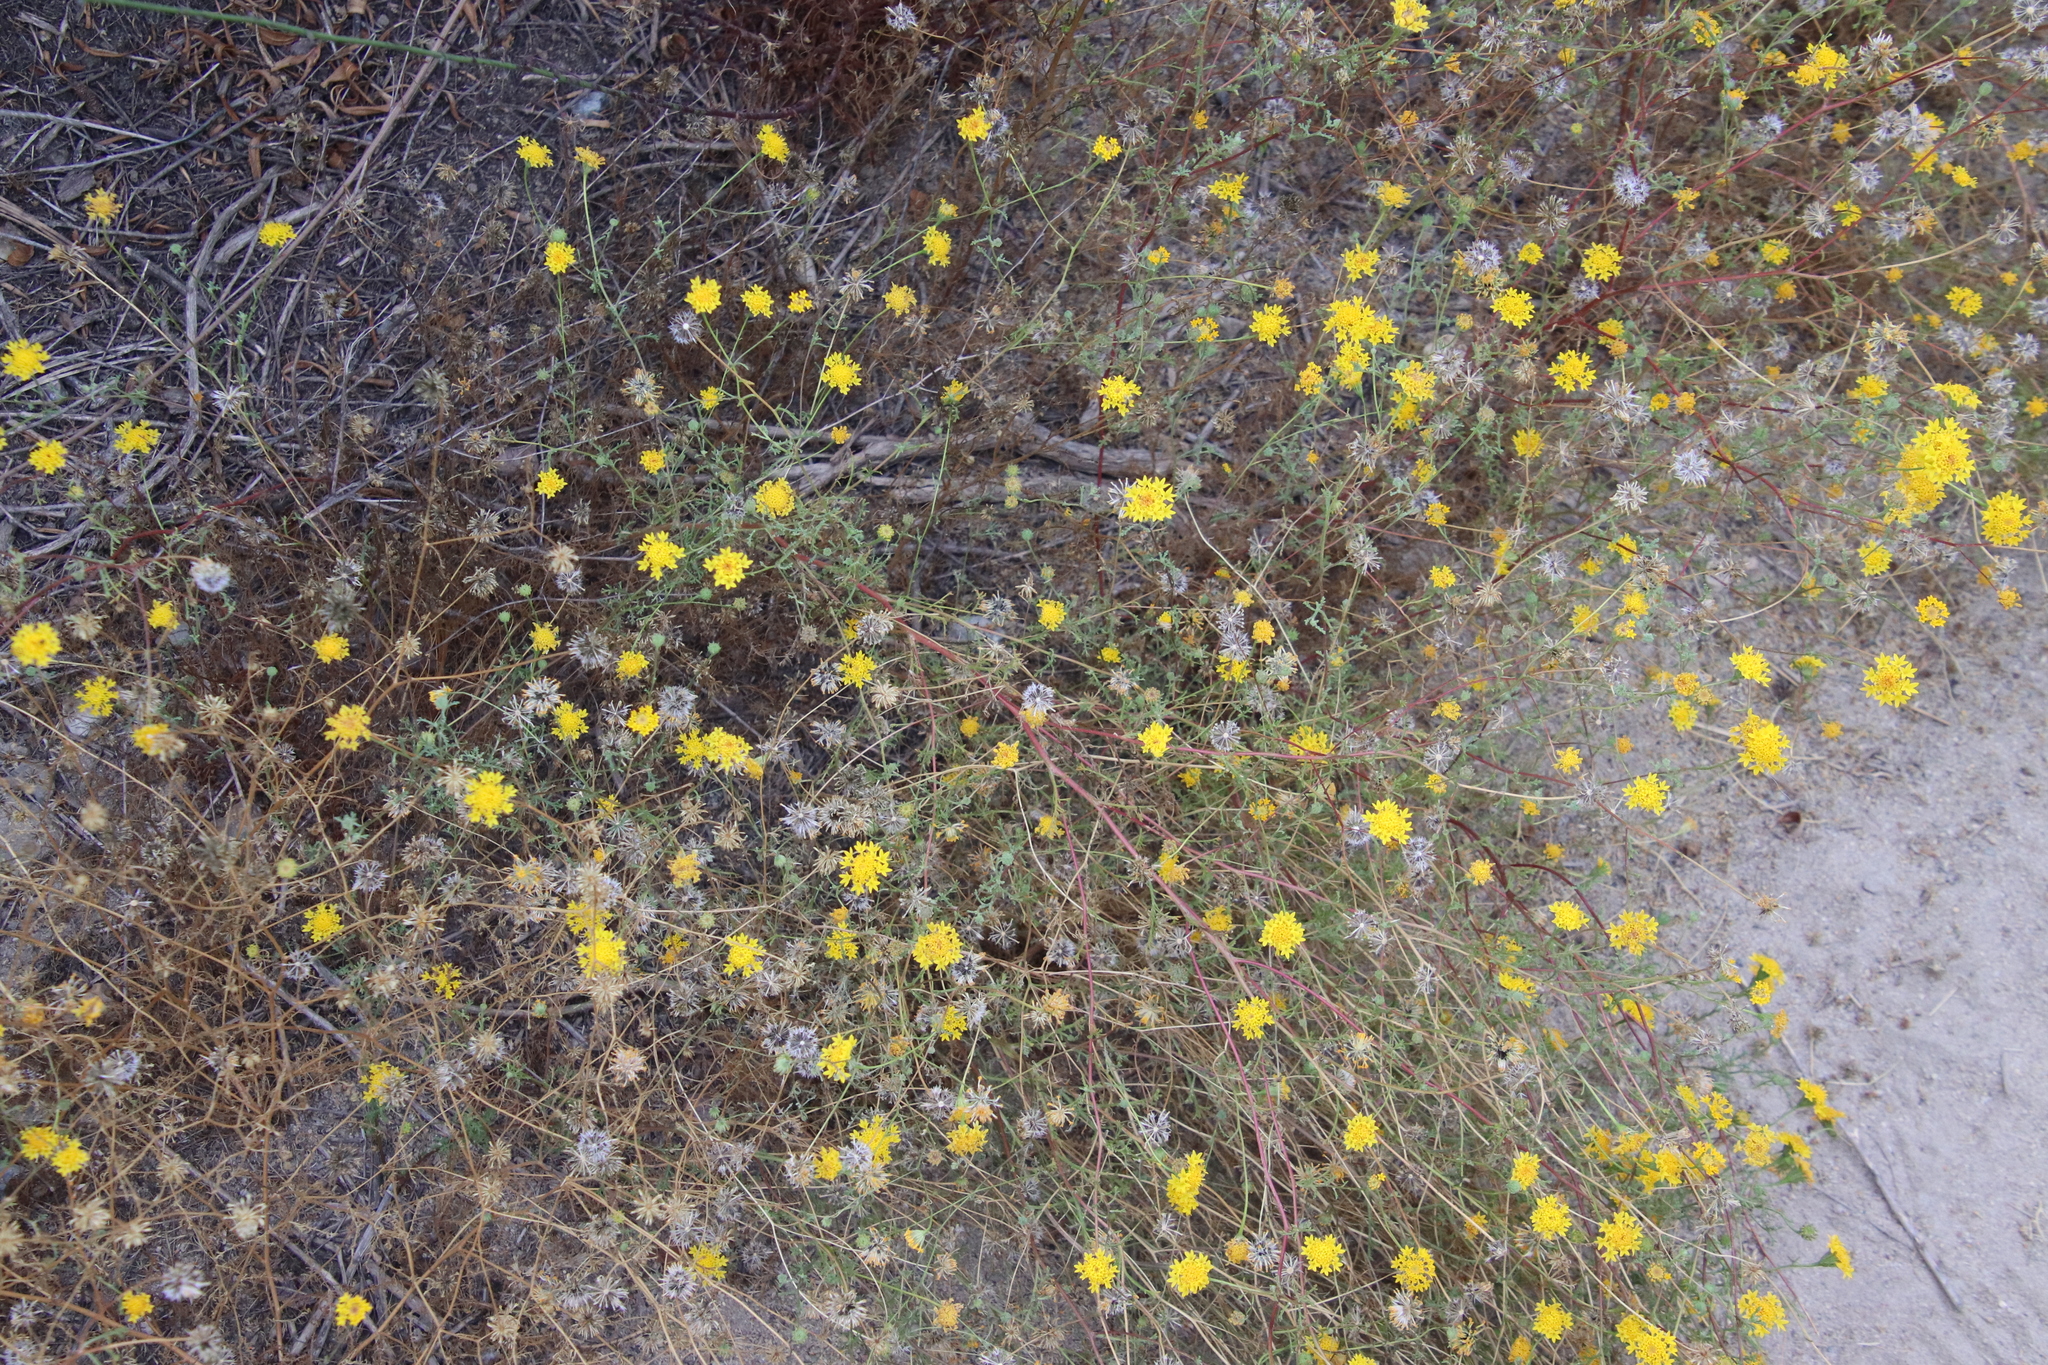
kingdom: Plantae
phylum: Tracheophyta
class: Magnoliopsida
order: Asterales
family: Asteraceae
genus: Chaenactis
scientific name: Chaenactis glabriuscula
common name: Yellow pincushion
